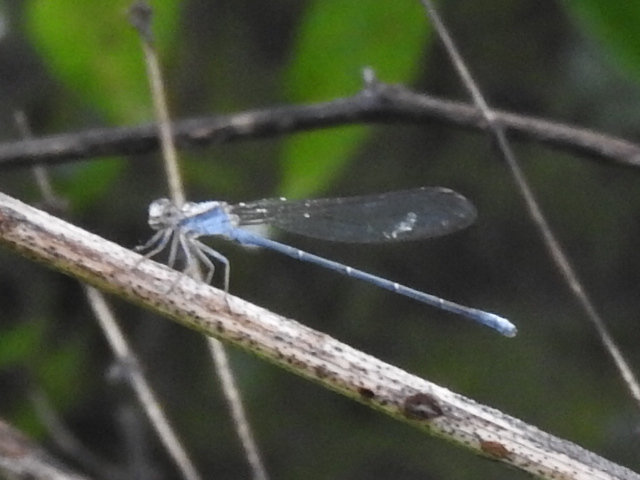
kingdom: Animalia
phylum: Arthropoda
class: Insecta
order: Odonata
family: Coenagrionidae
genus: Argia
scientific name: Argia moesta
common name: Powdered dancer
